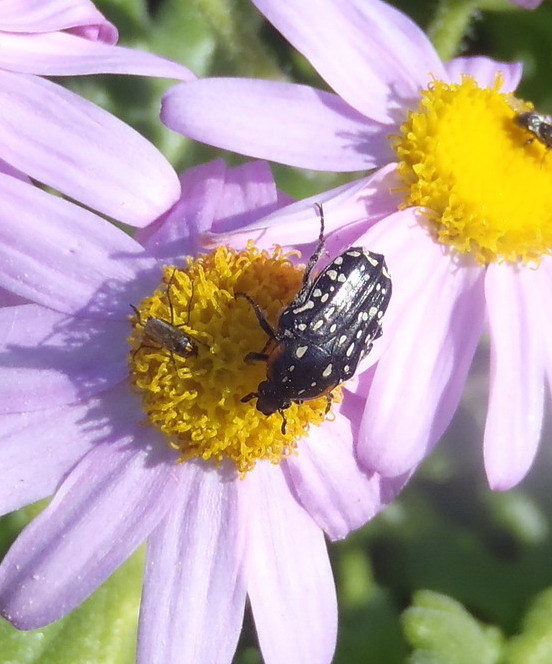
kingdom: Animalia
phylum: Arthropoda
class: Insecta
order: Coleoptera
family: Scarabaeidae
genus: Oxythyrea
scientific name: Oxythyrea
